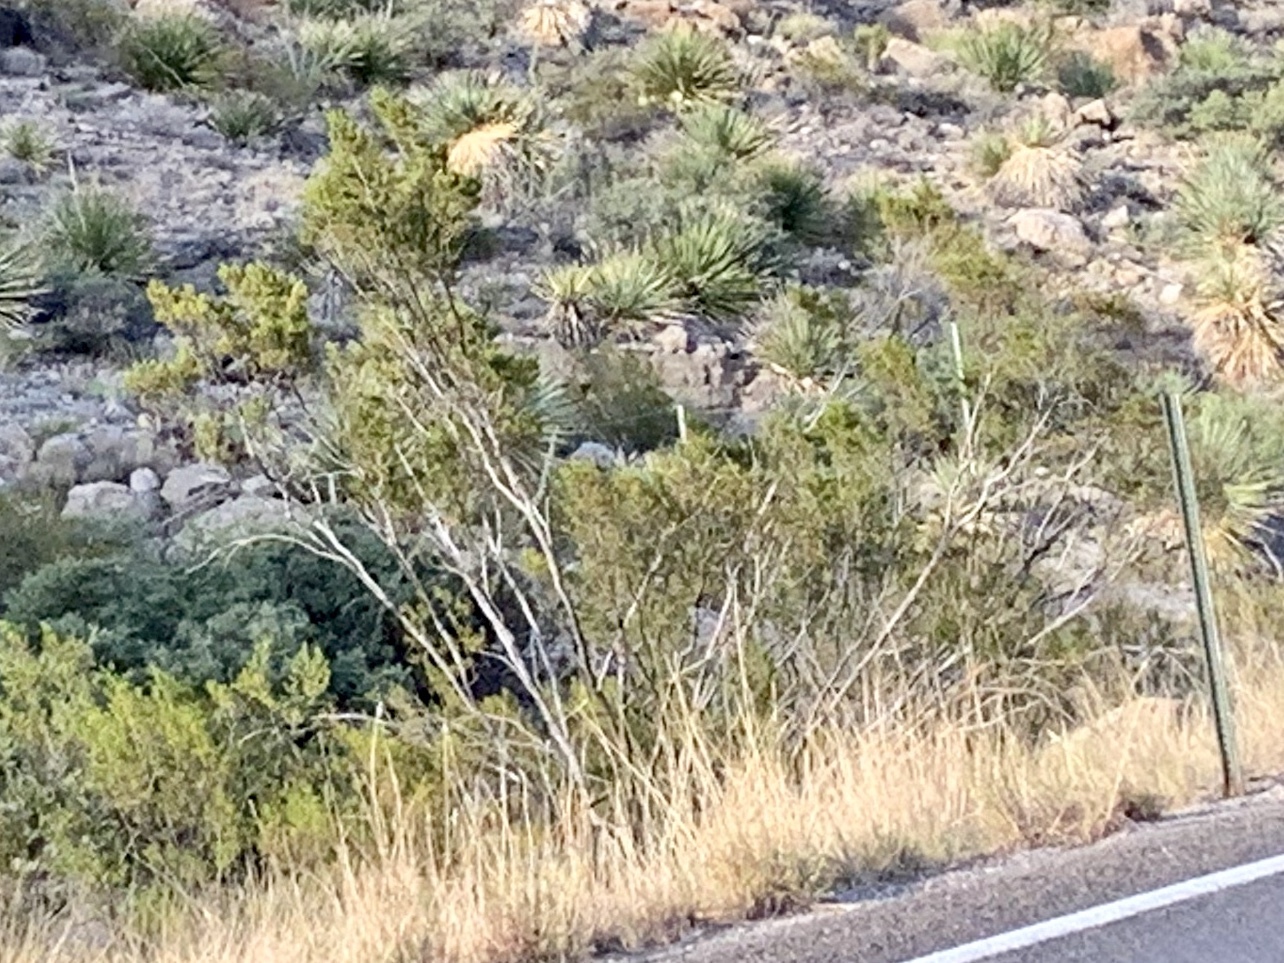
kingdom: Plantae
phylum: Tracheophyta
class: Magnoliopsida
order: Zygophyllales
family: Zygophyllaceae
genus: Larrea
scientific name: Larrea tridentata
